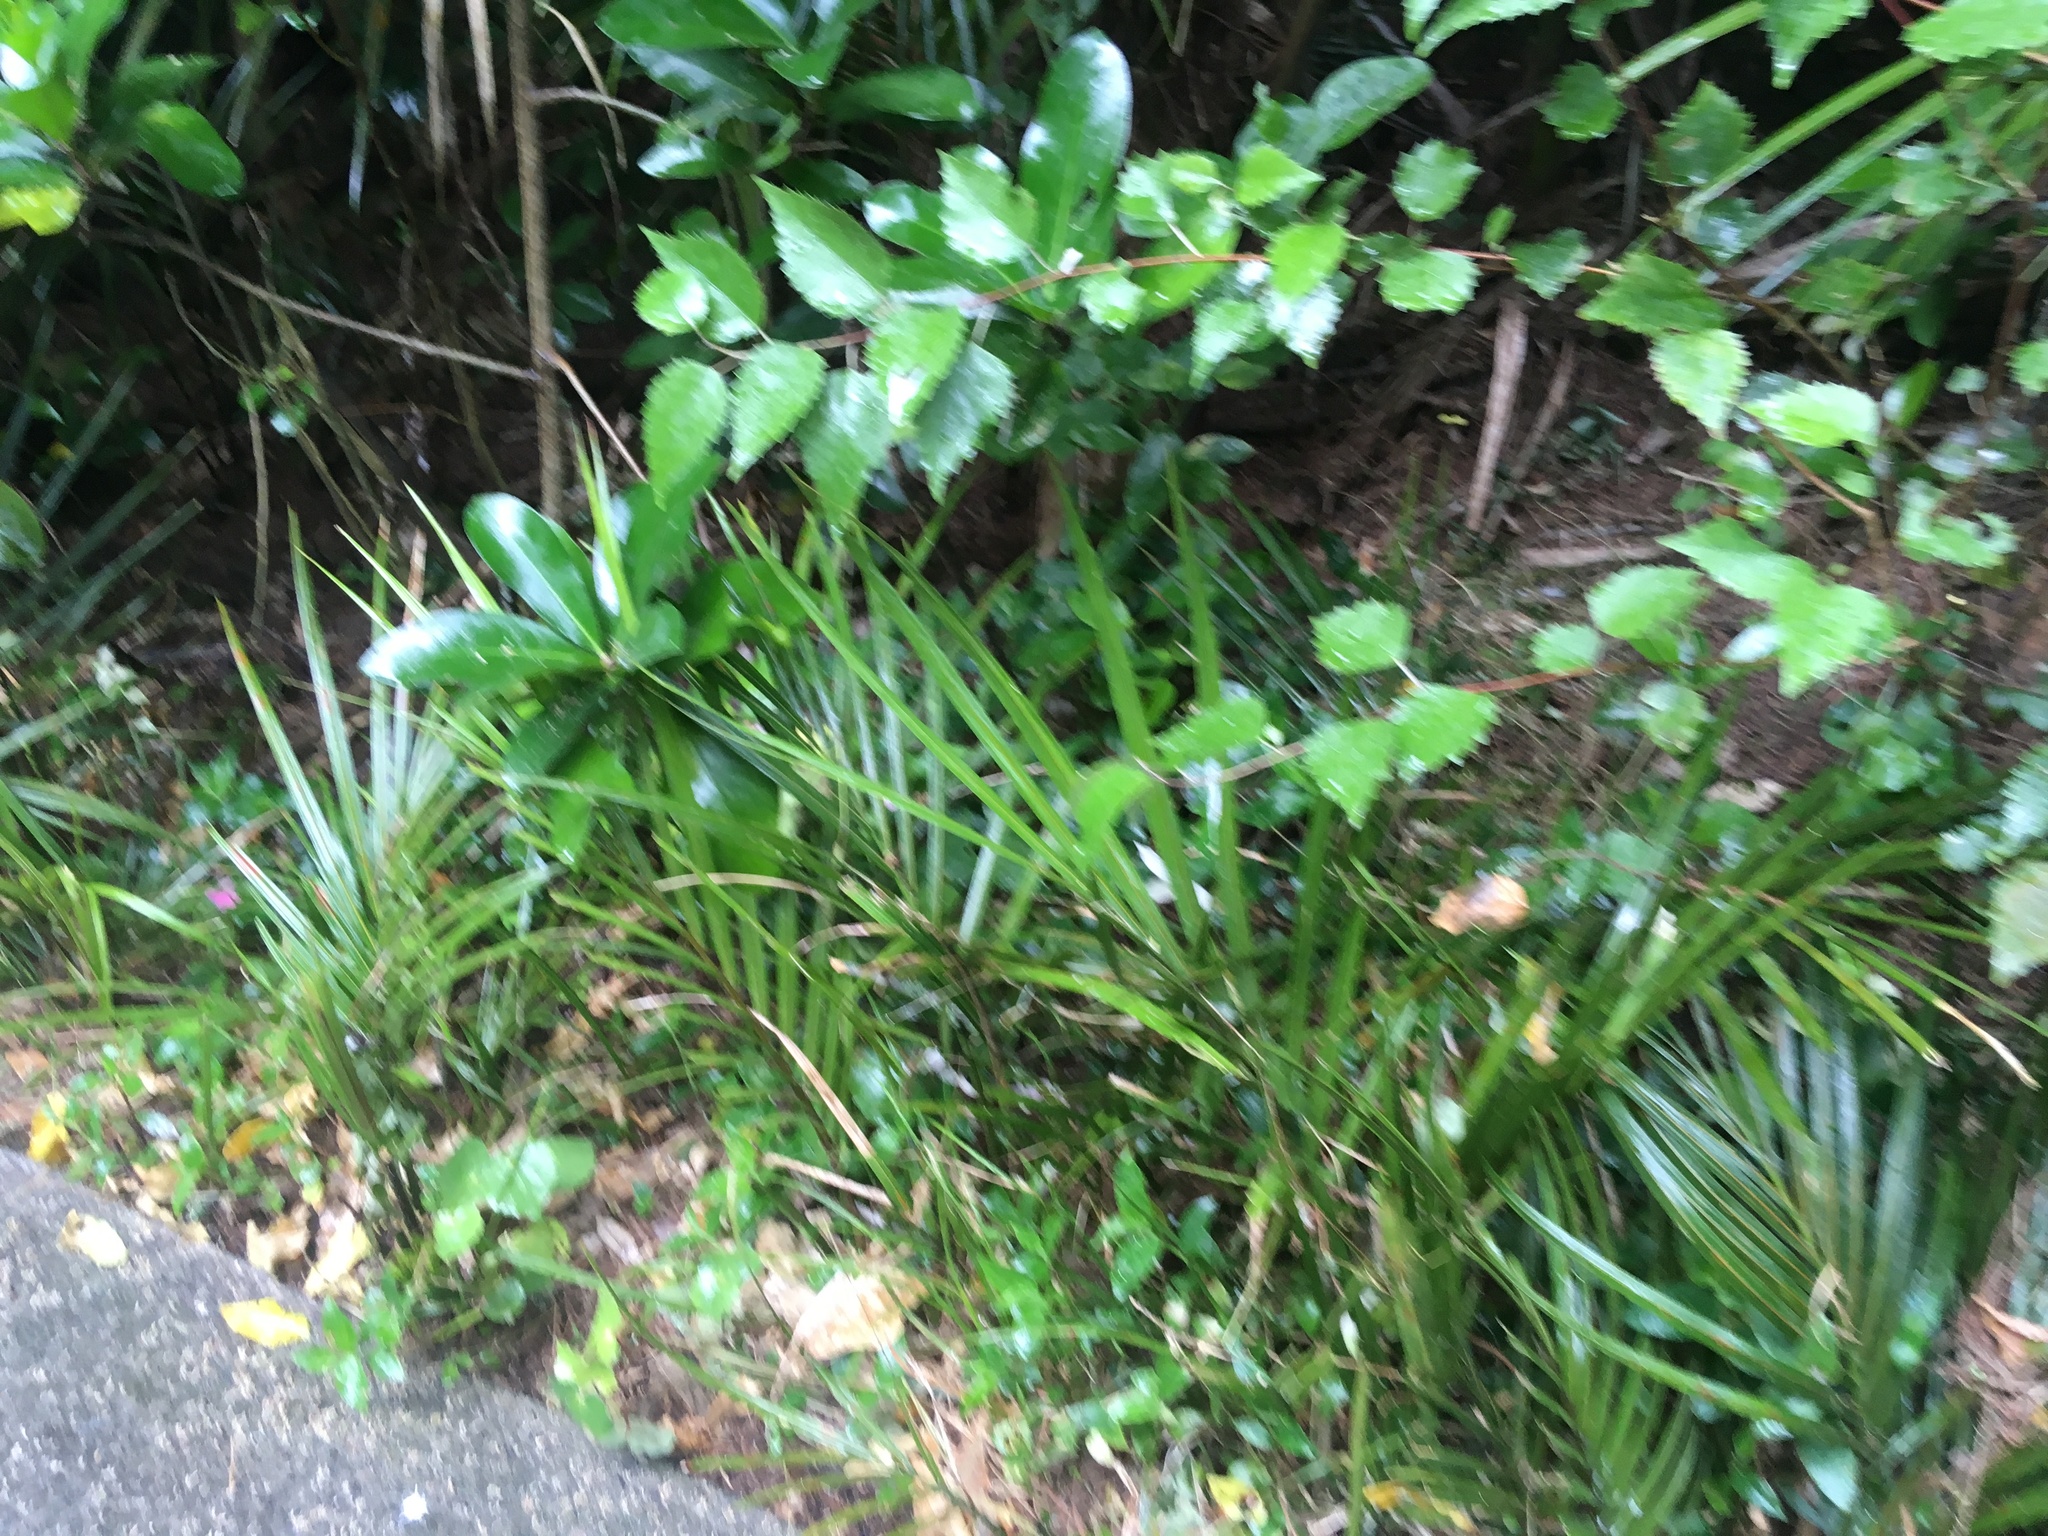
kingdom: Plantae
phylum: Tracheophyta
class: Liliopsida
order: Arecales
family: Arecaceae
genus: Rhopalostylis
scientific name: Rhopalostylis sapida
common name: Feather-duster palm
